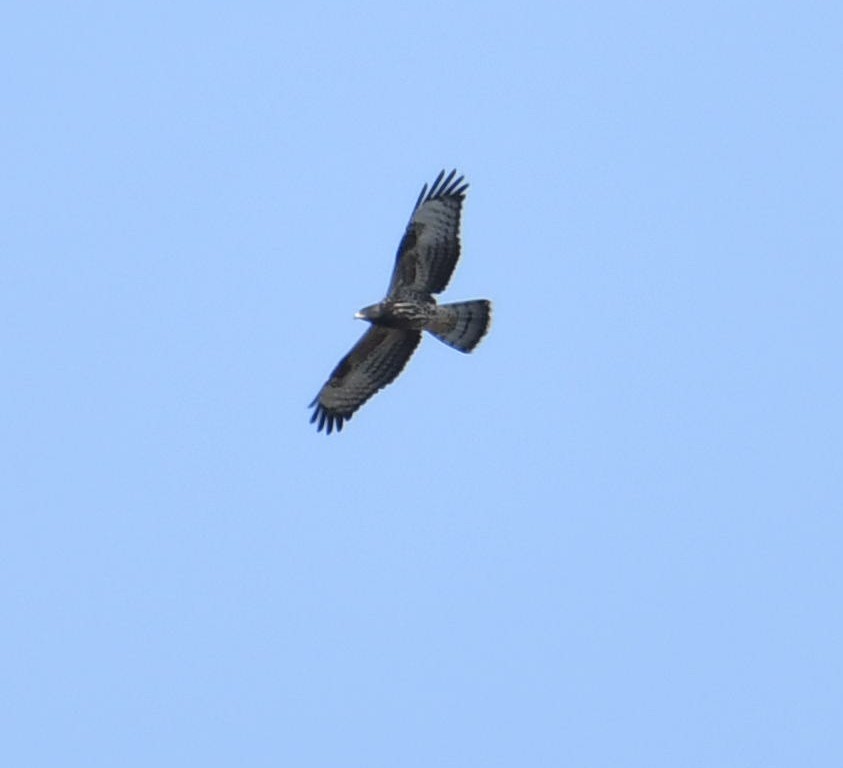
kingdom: Animalia
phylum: Chordata
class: Aves
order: Accipitriformes
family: Accipitridae
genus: Buteo
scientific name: Buteo buteo
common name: Common buzzard
